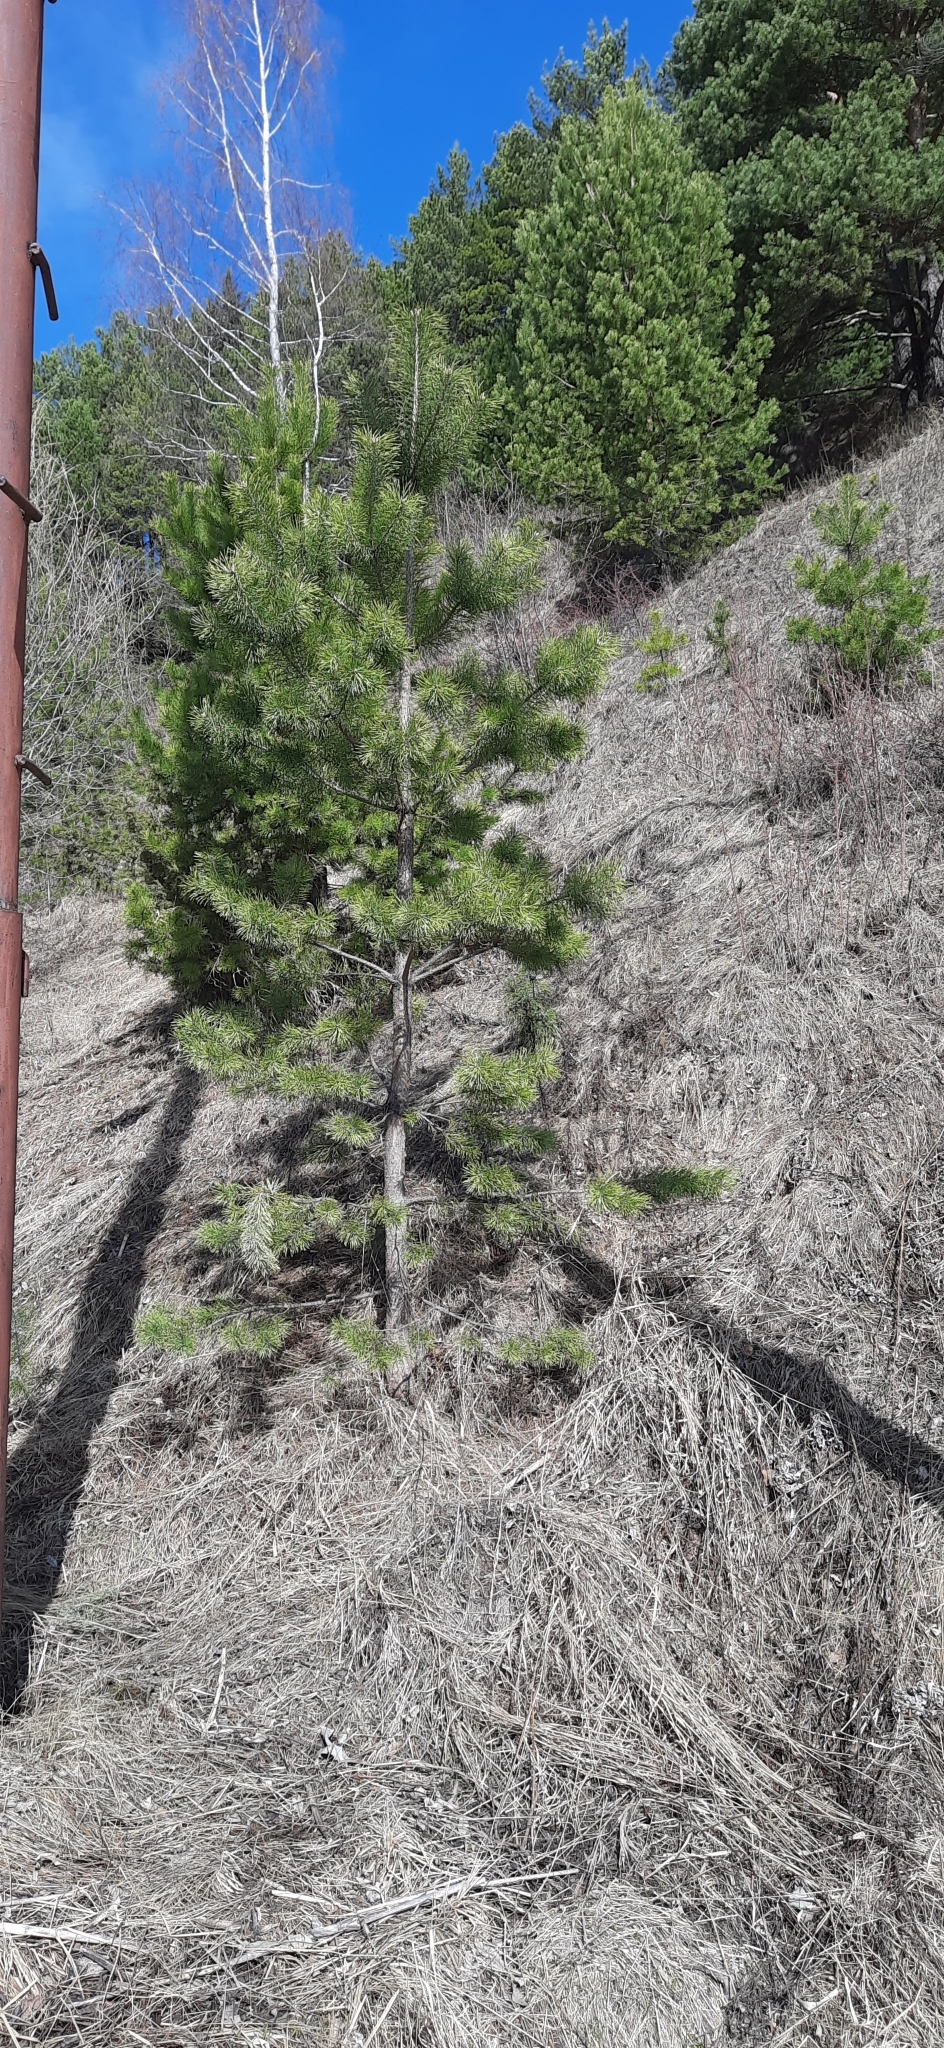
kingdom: Plantae
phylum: Tracheophyta
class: Pinopsida
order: Pinales
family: Pinaceae
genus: Pinus
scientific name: Pinus sylvestris
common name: Scots pine
